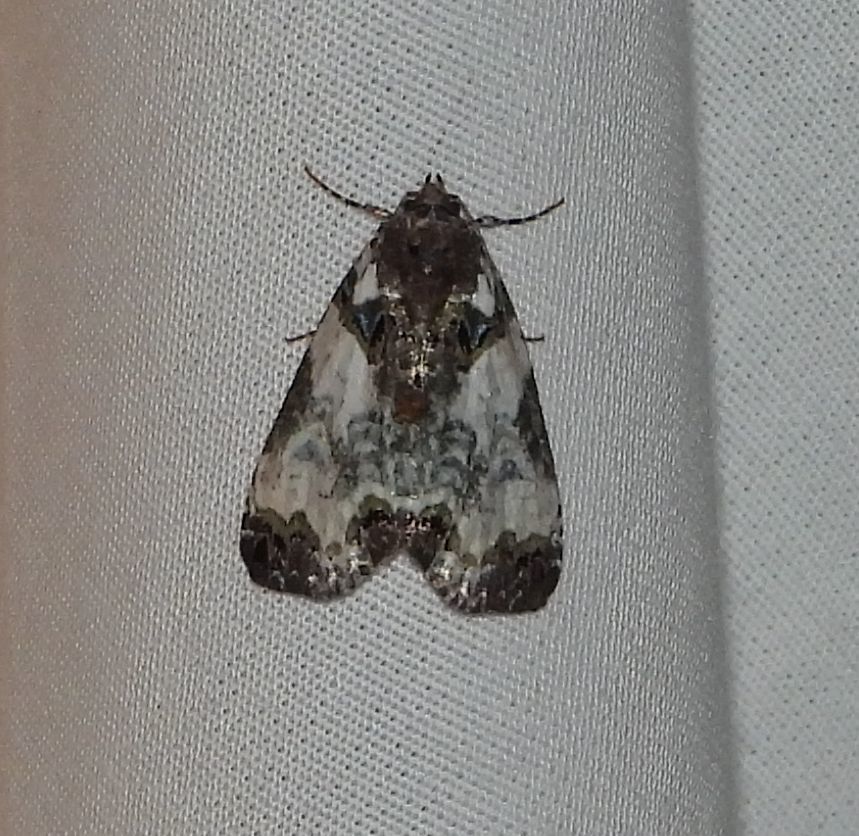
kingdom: Animalia
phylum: Arthropoda
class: Insecta
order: Lepidoptera
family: Noctuidae
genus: Cerma
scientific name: Cerma cerintha
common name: Tufted bird-dropping moth
